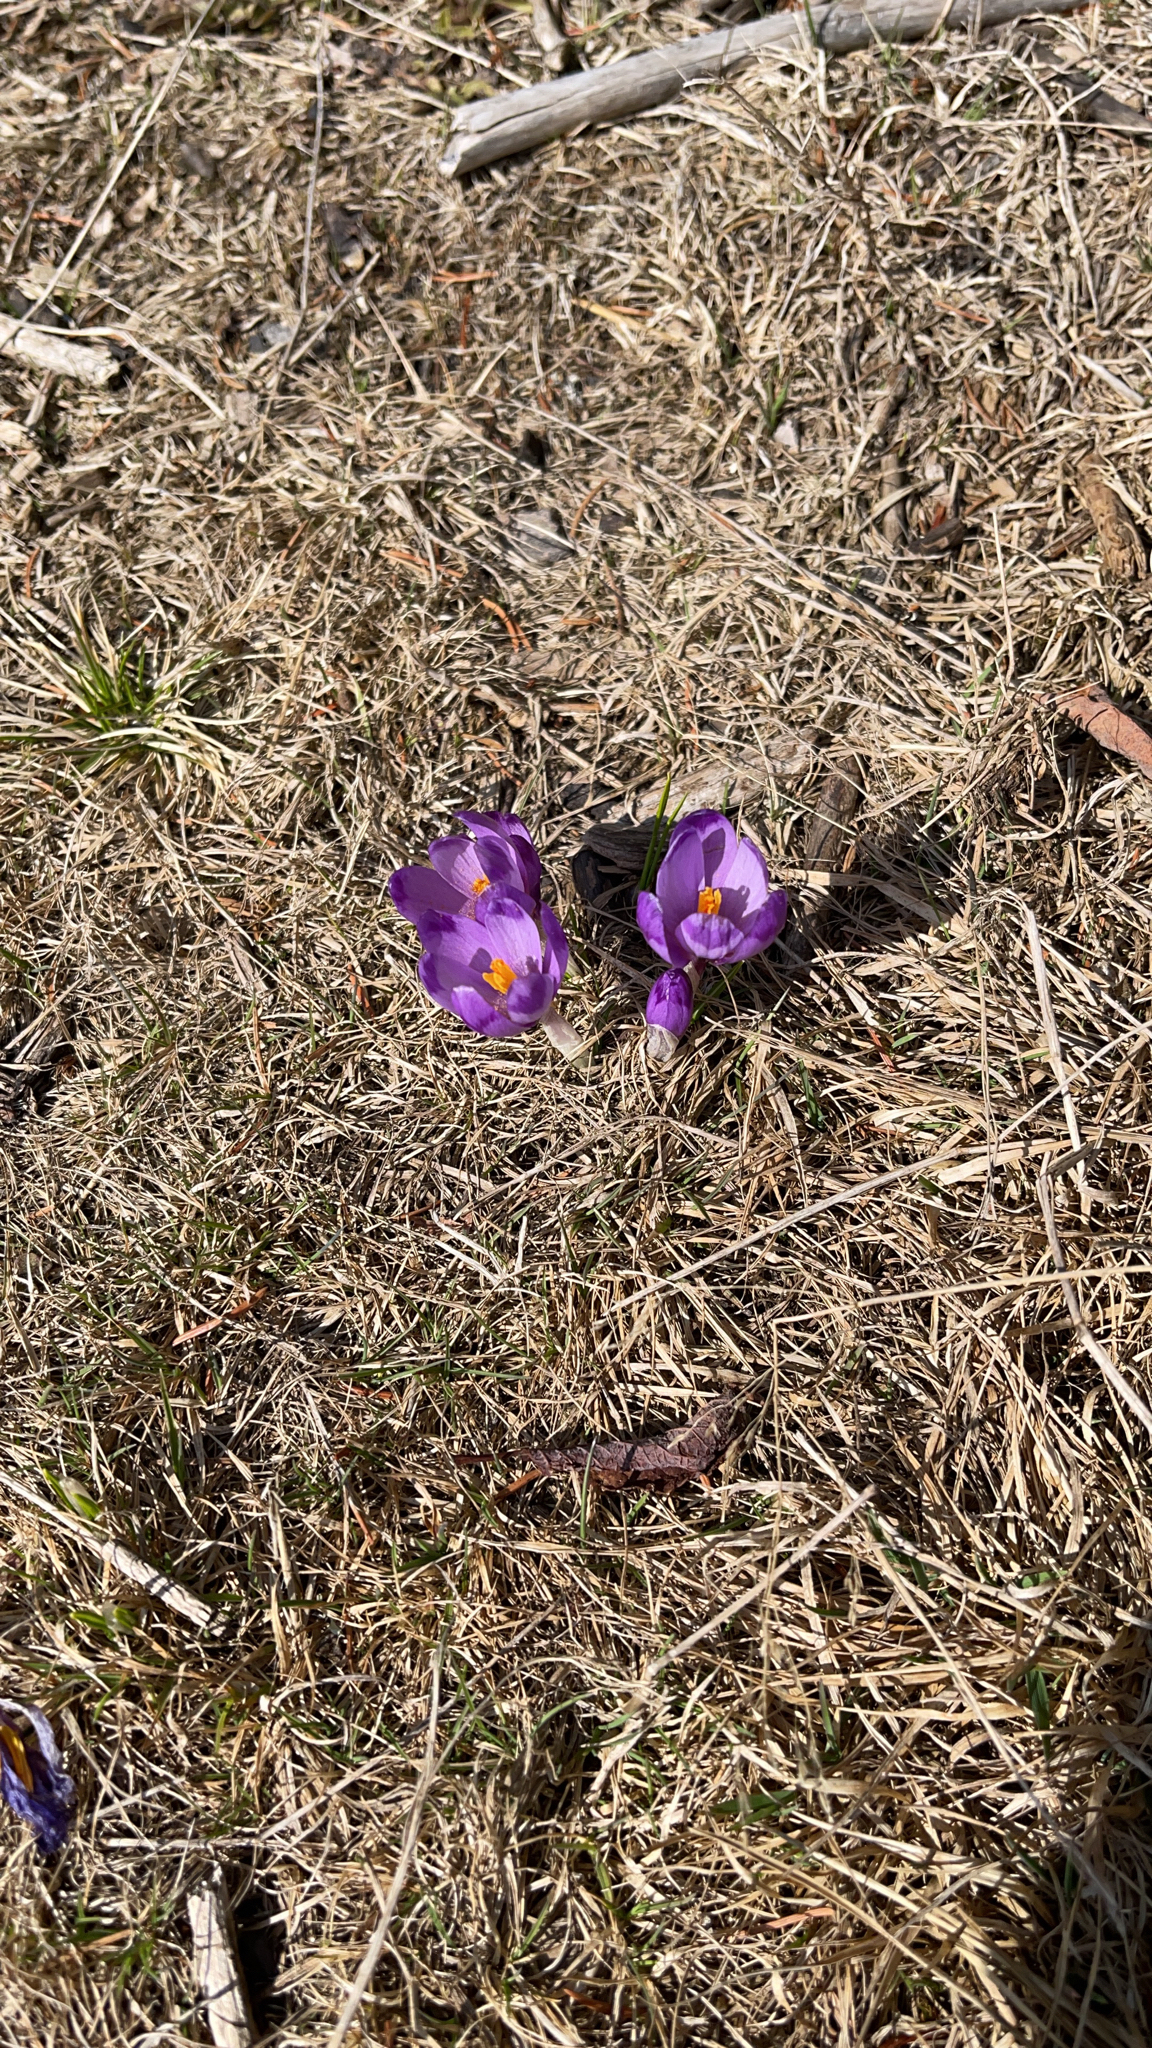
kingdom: Plantae
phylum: Tracheophyta
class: Liliopsida
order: Asparagales
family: Iridaceae
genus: Crocus
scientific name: Crocus heuffelianus
